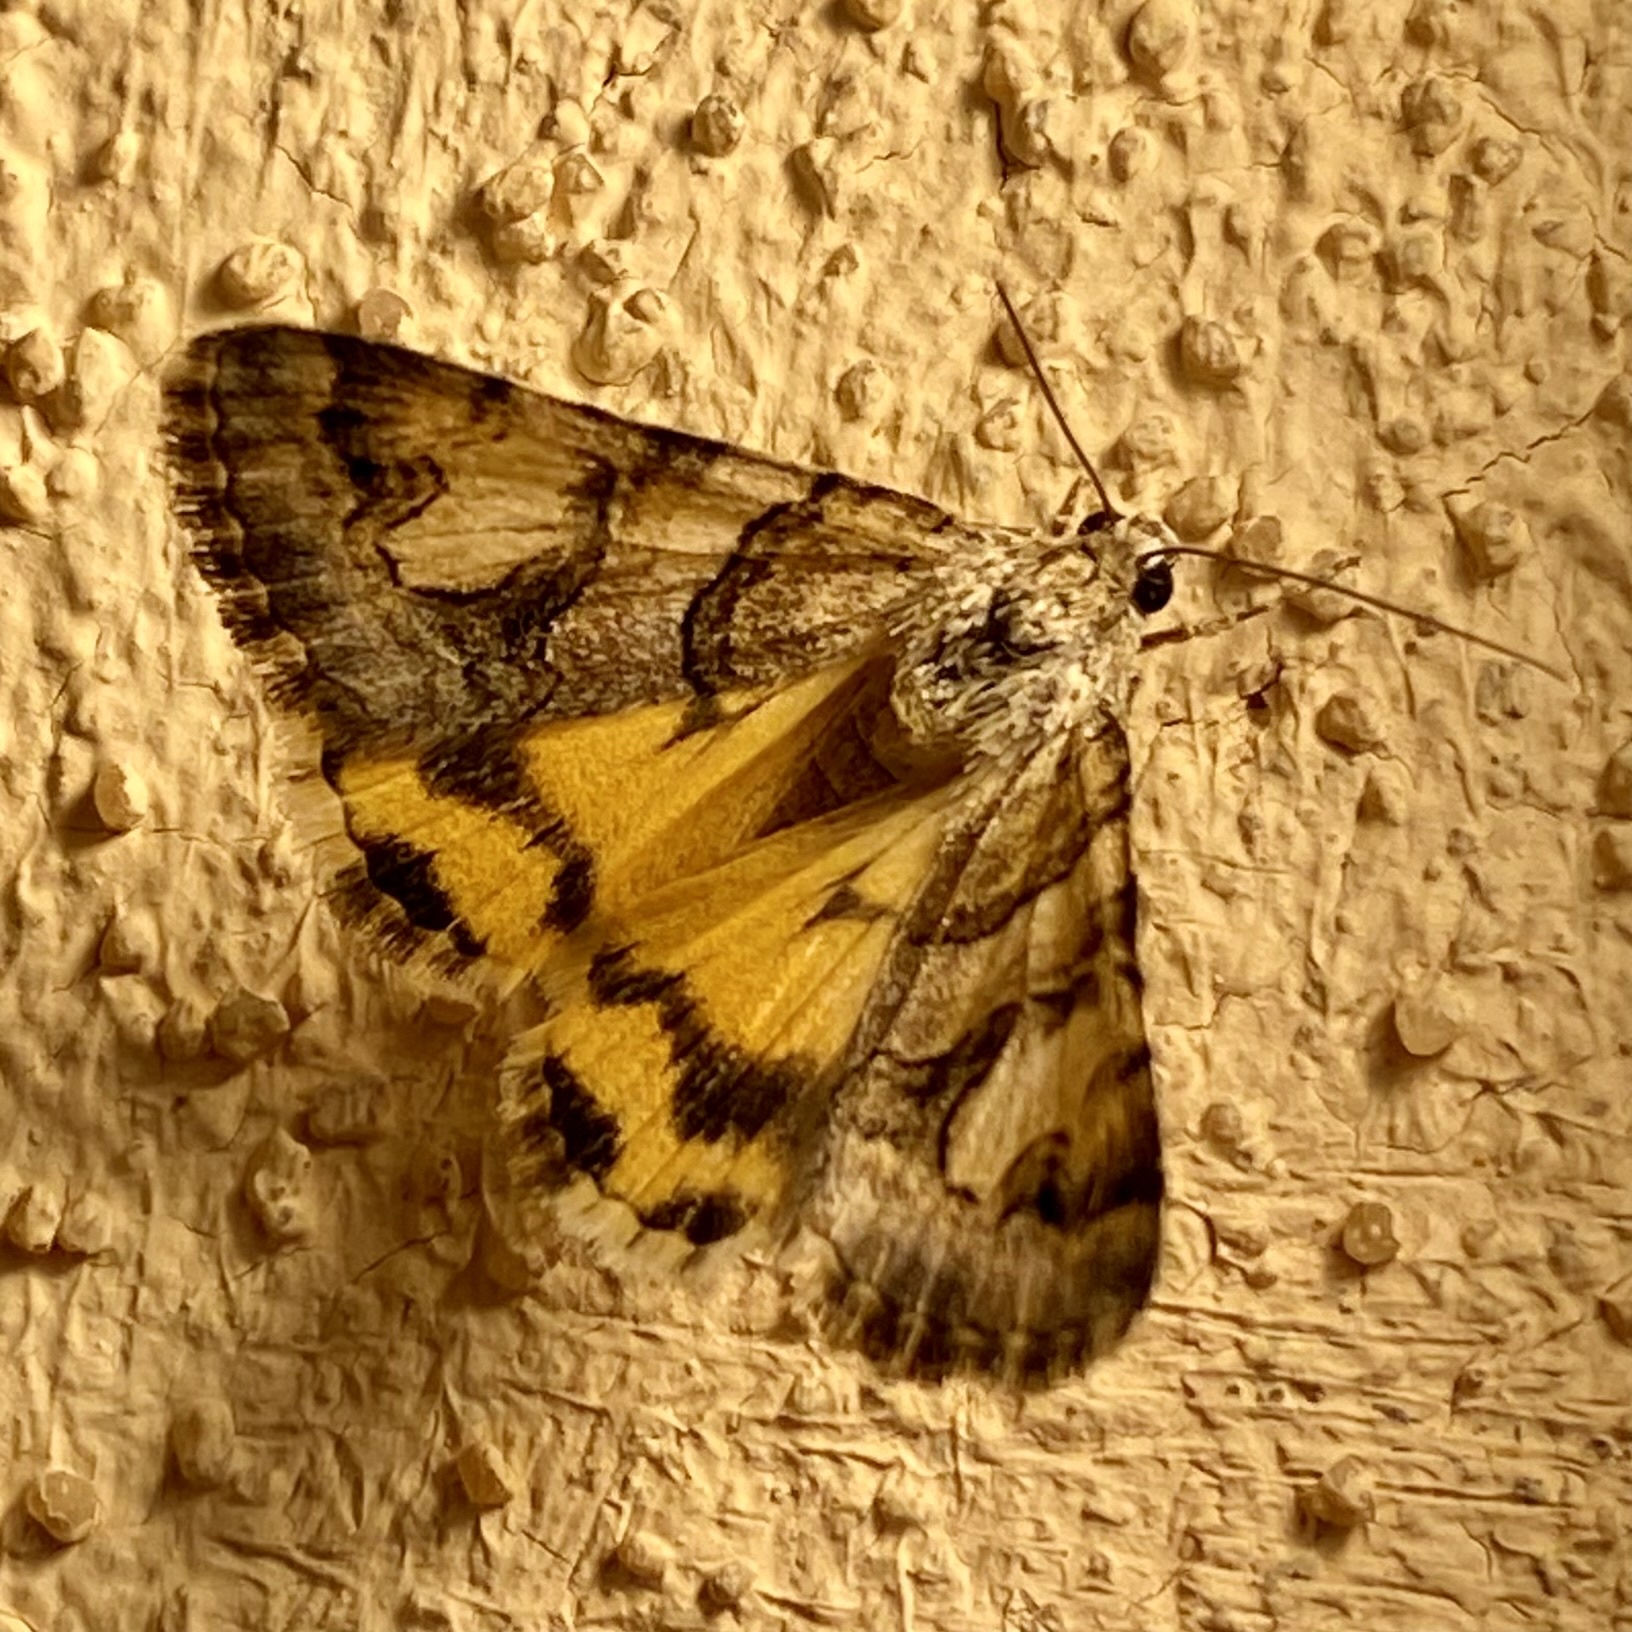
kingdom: Animalia
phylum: Arthropoda
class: Insecta
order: Lepidoptera
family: Erebidae
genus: Drasteria
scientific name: Drasteria howlandii
